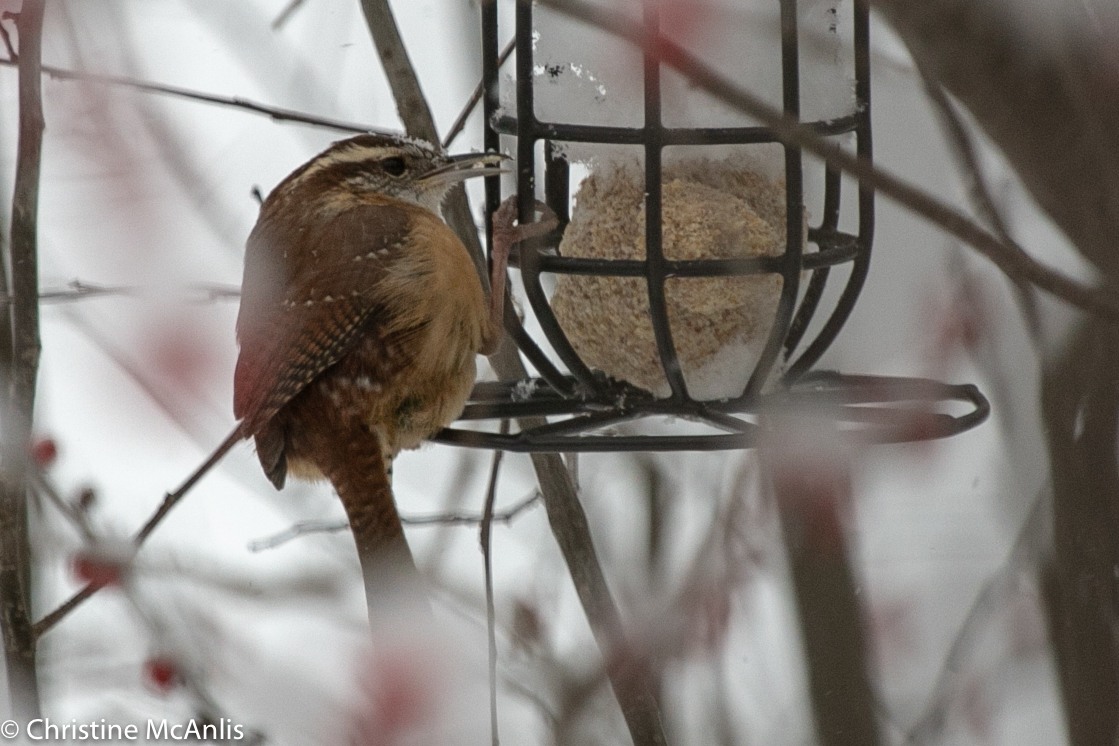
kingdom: Animalia
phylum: Chordata
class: Aves
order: Passeriformes
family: Troglodytidae
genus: Thryothorus
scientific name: Thryothorus ludovicianus
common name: Carolina wren
